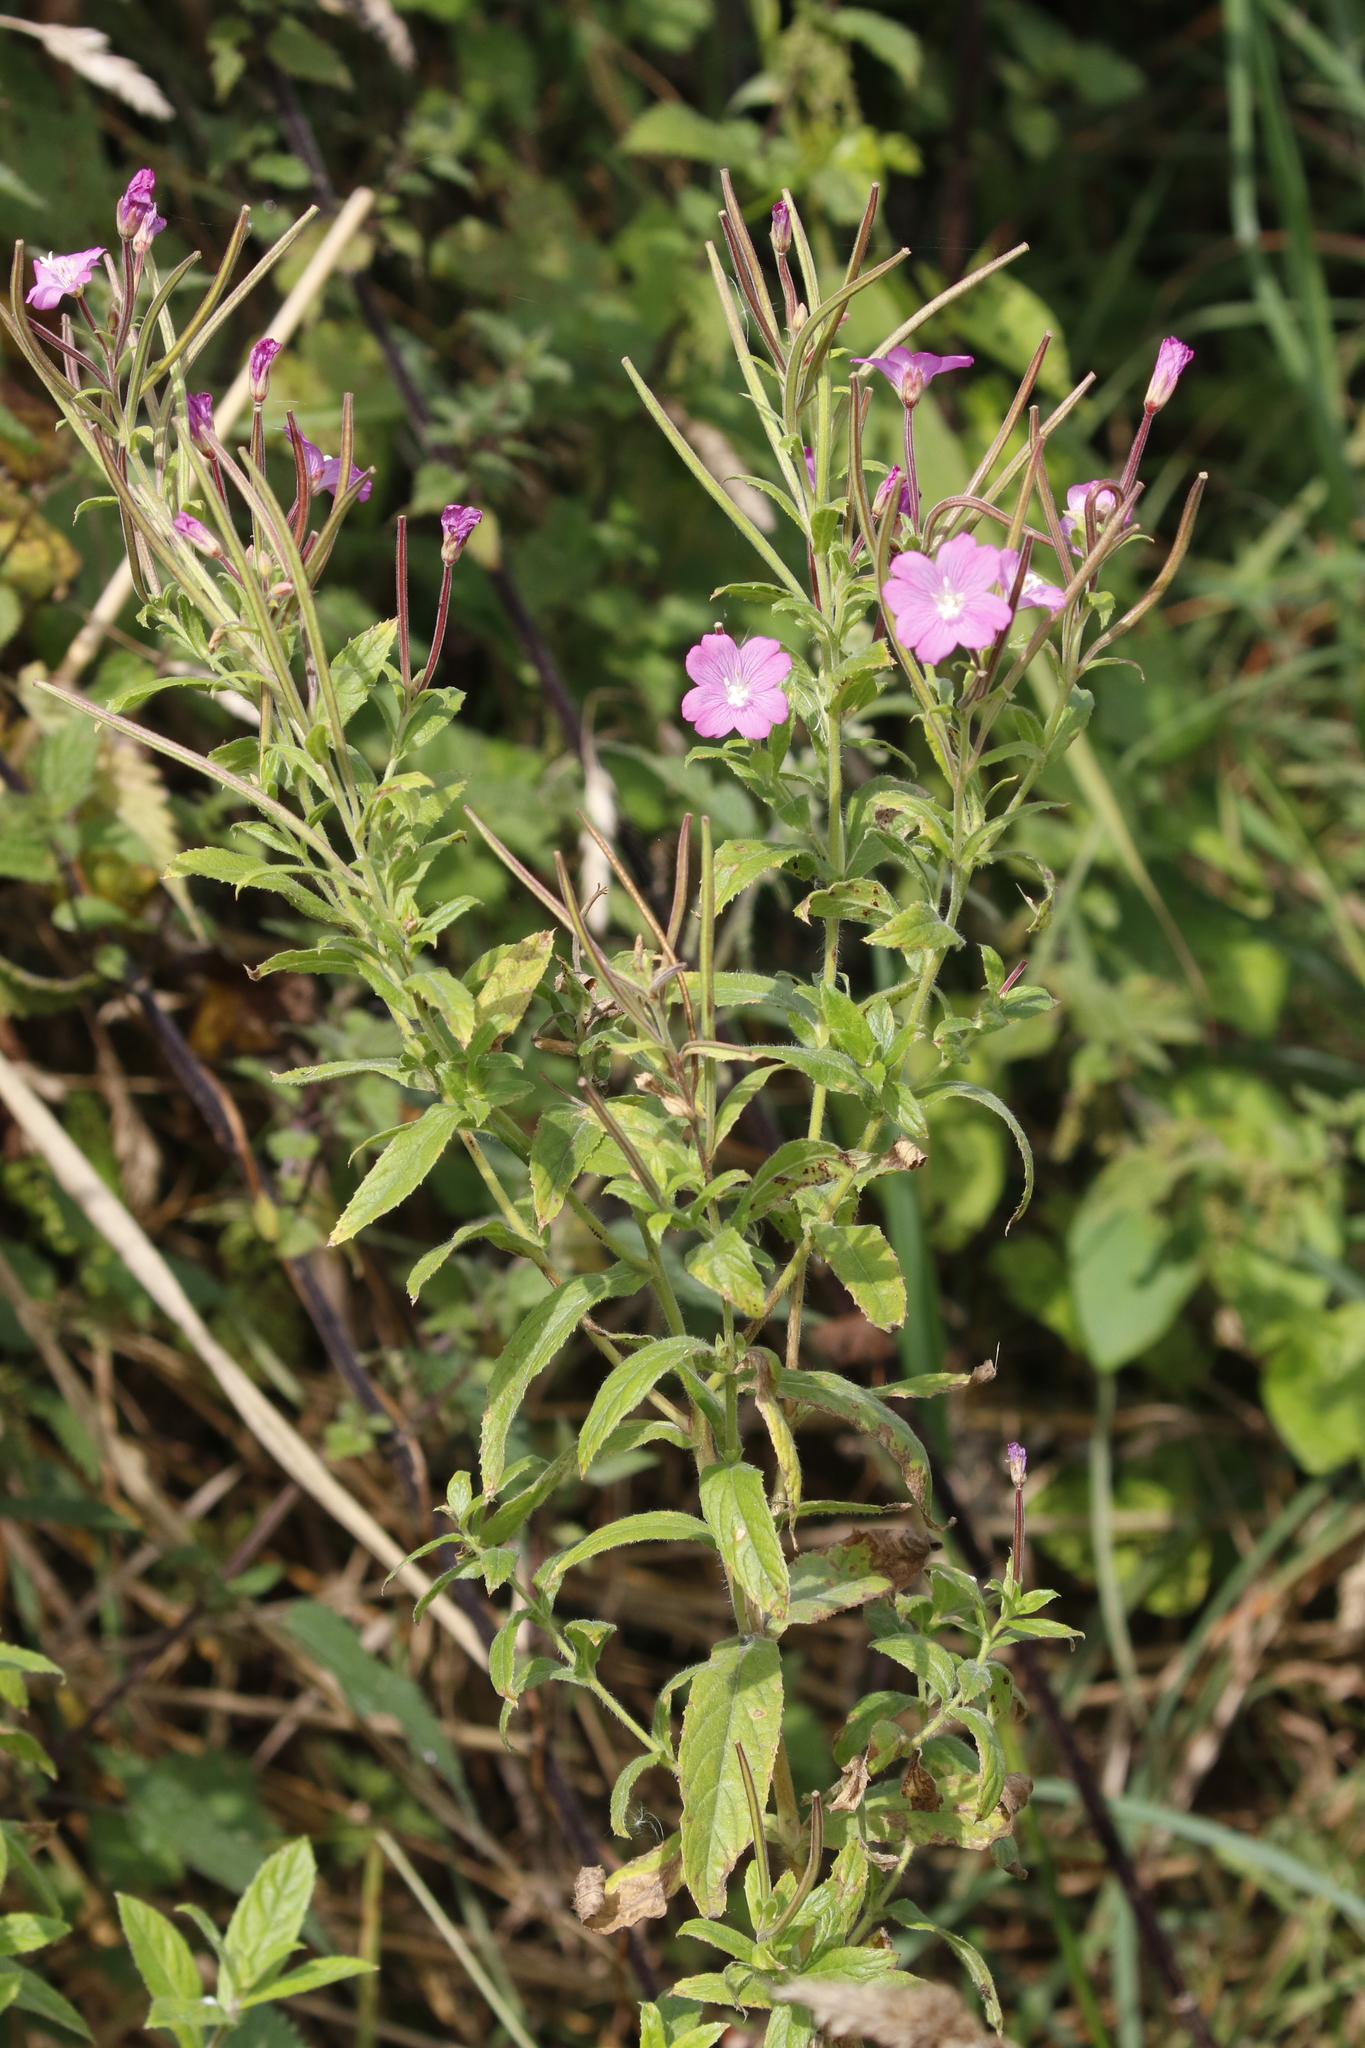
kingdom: Plantae
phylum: Tracheophyta
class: Magnoliopsida
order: Myrtales
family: Onagraceae
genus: Epilobium
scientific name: Epilobium hirsutum
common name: Great willowherb
